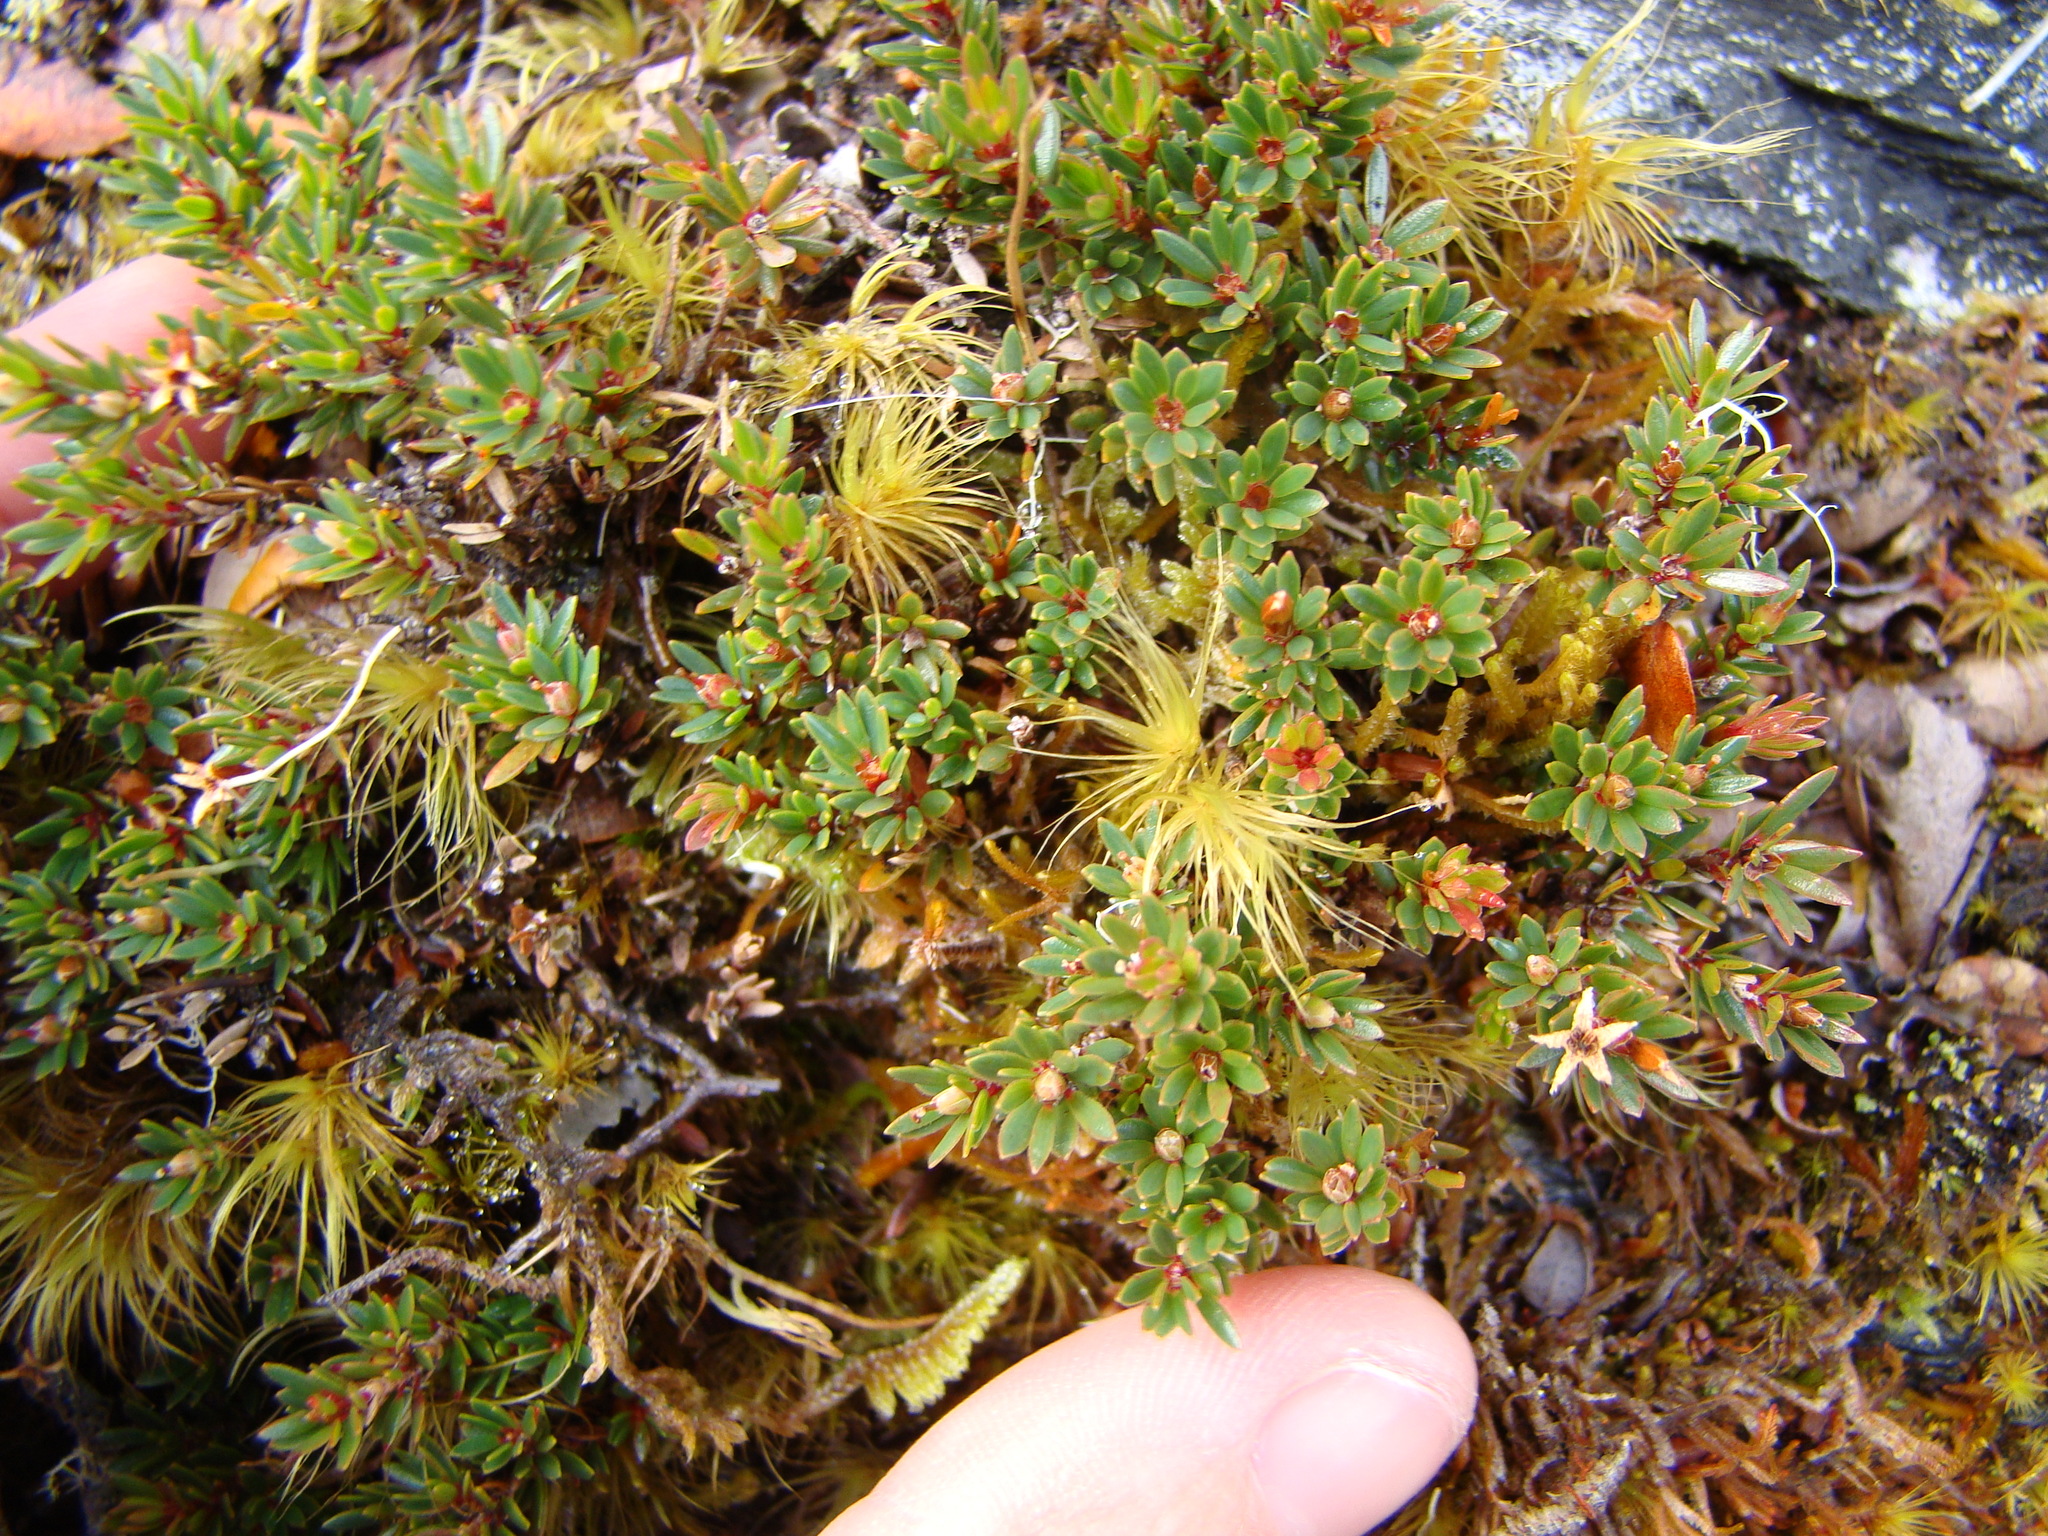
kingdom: Plantae
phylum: Tracheophyta
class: Magnoliopsida
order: Ericales
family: Ericaceae
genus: Pentachondra
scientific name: Pentachondra pumila
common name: Carpet-heath
